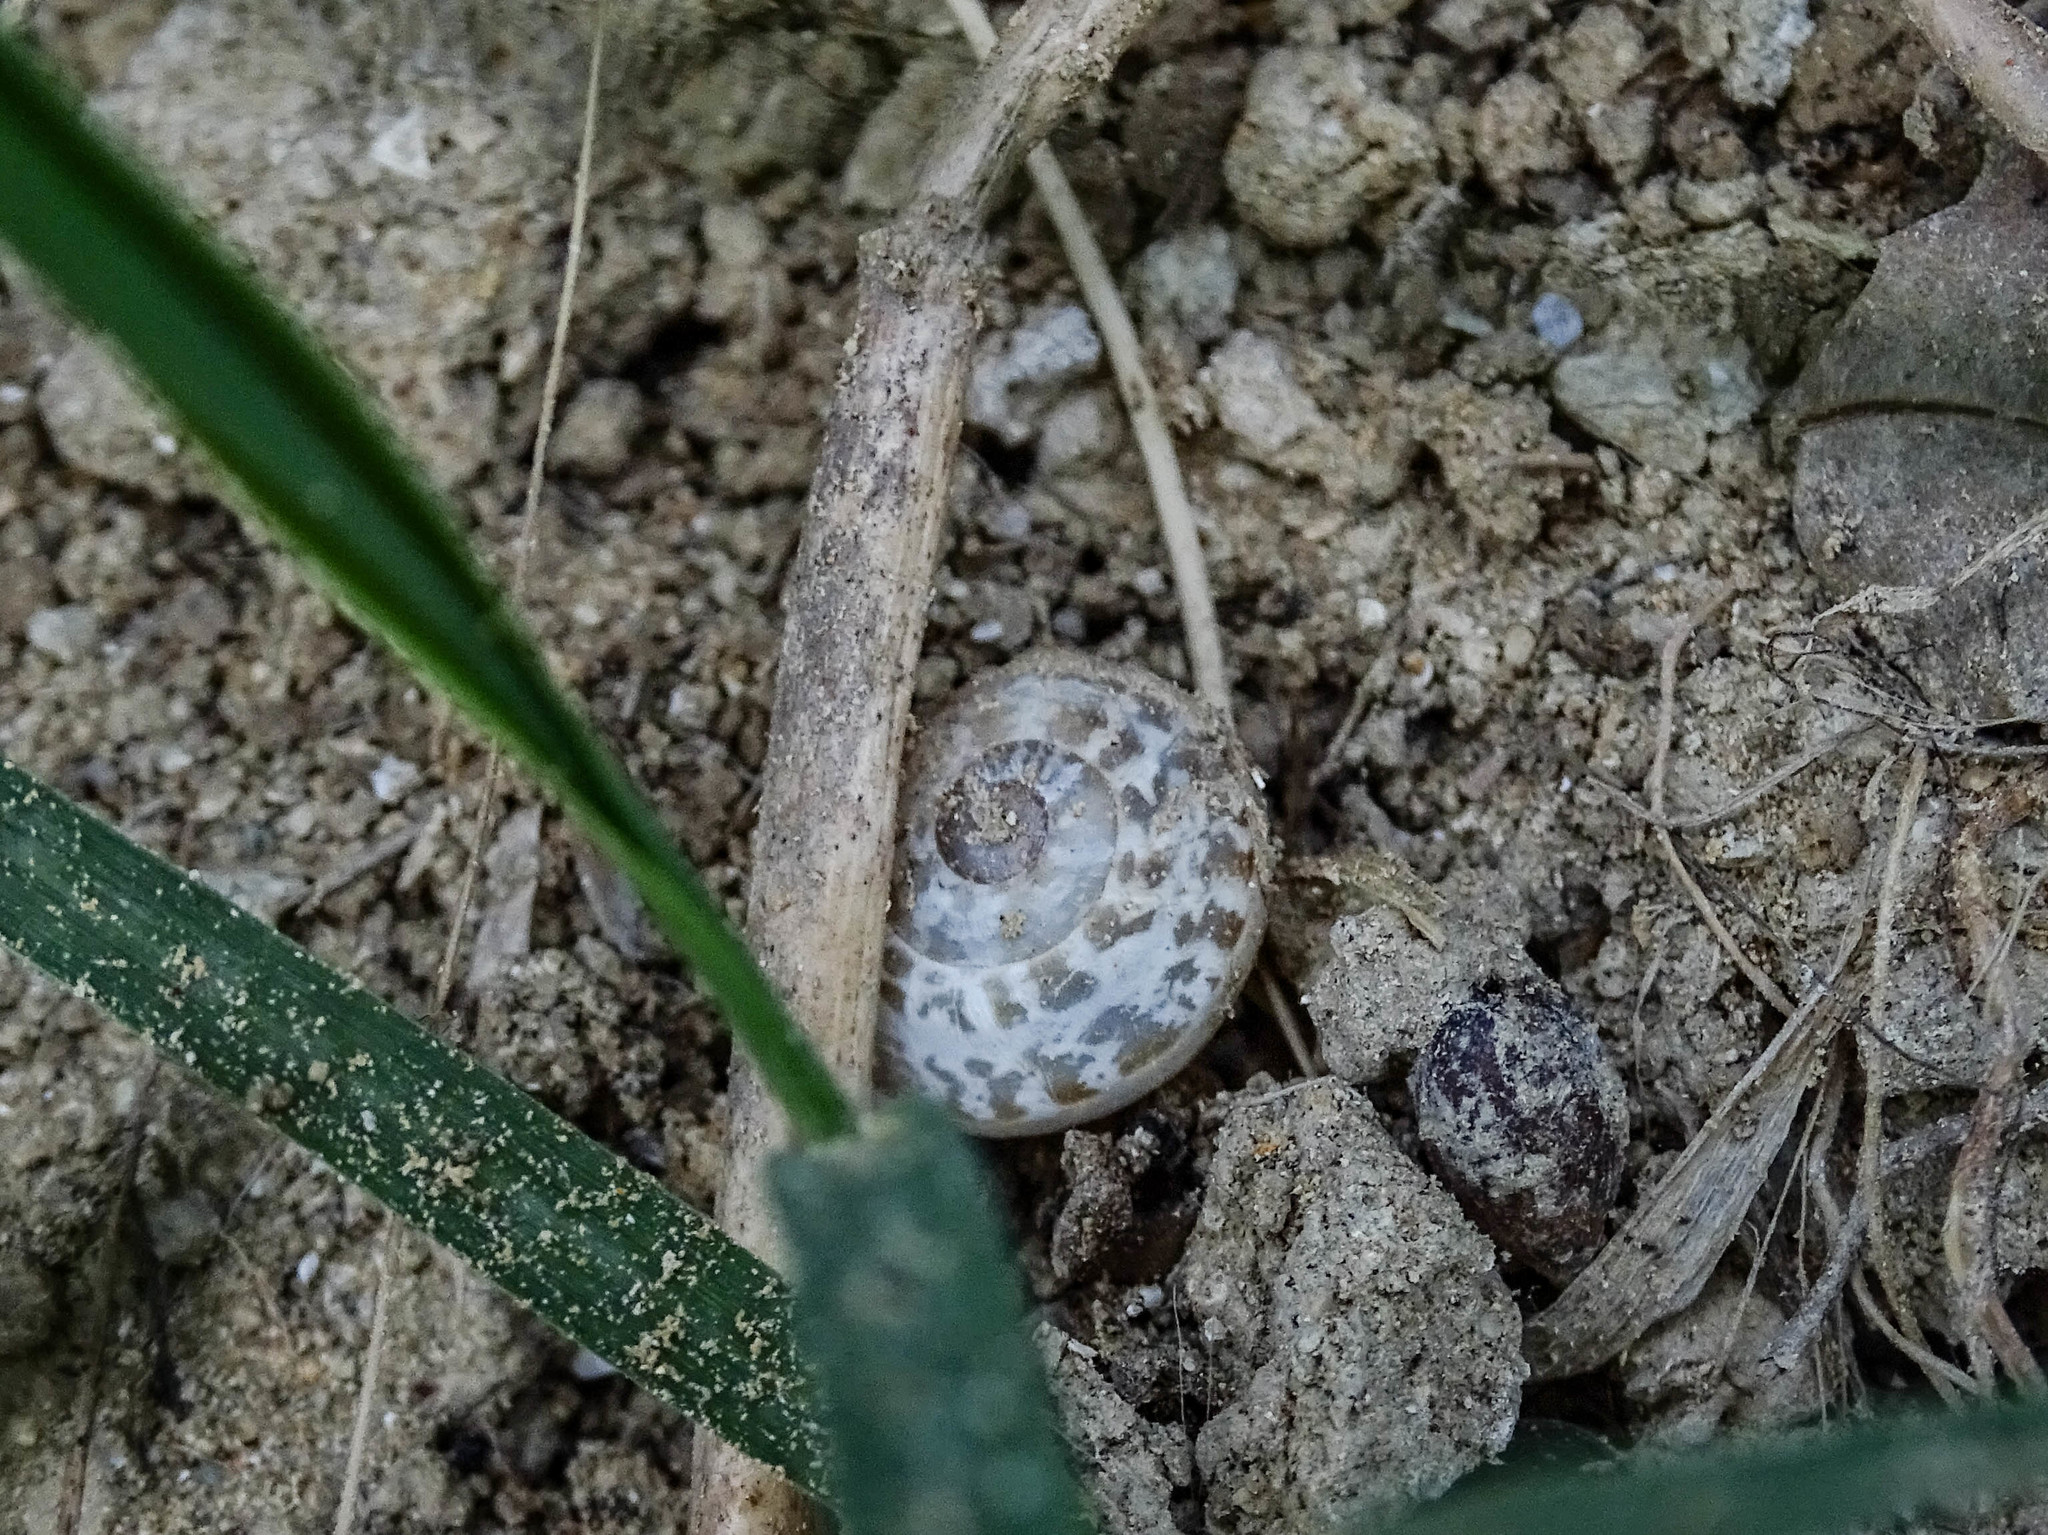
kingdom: Animalia
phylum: Mollusca
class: Gastropoda
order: Stylommatophora
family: Helicidae
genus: Eobania
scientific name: Eobania vermiculata
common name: Chocolateband snail
